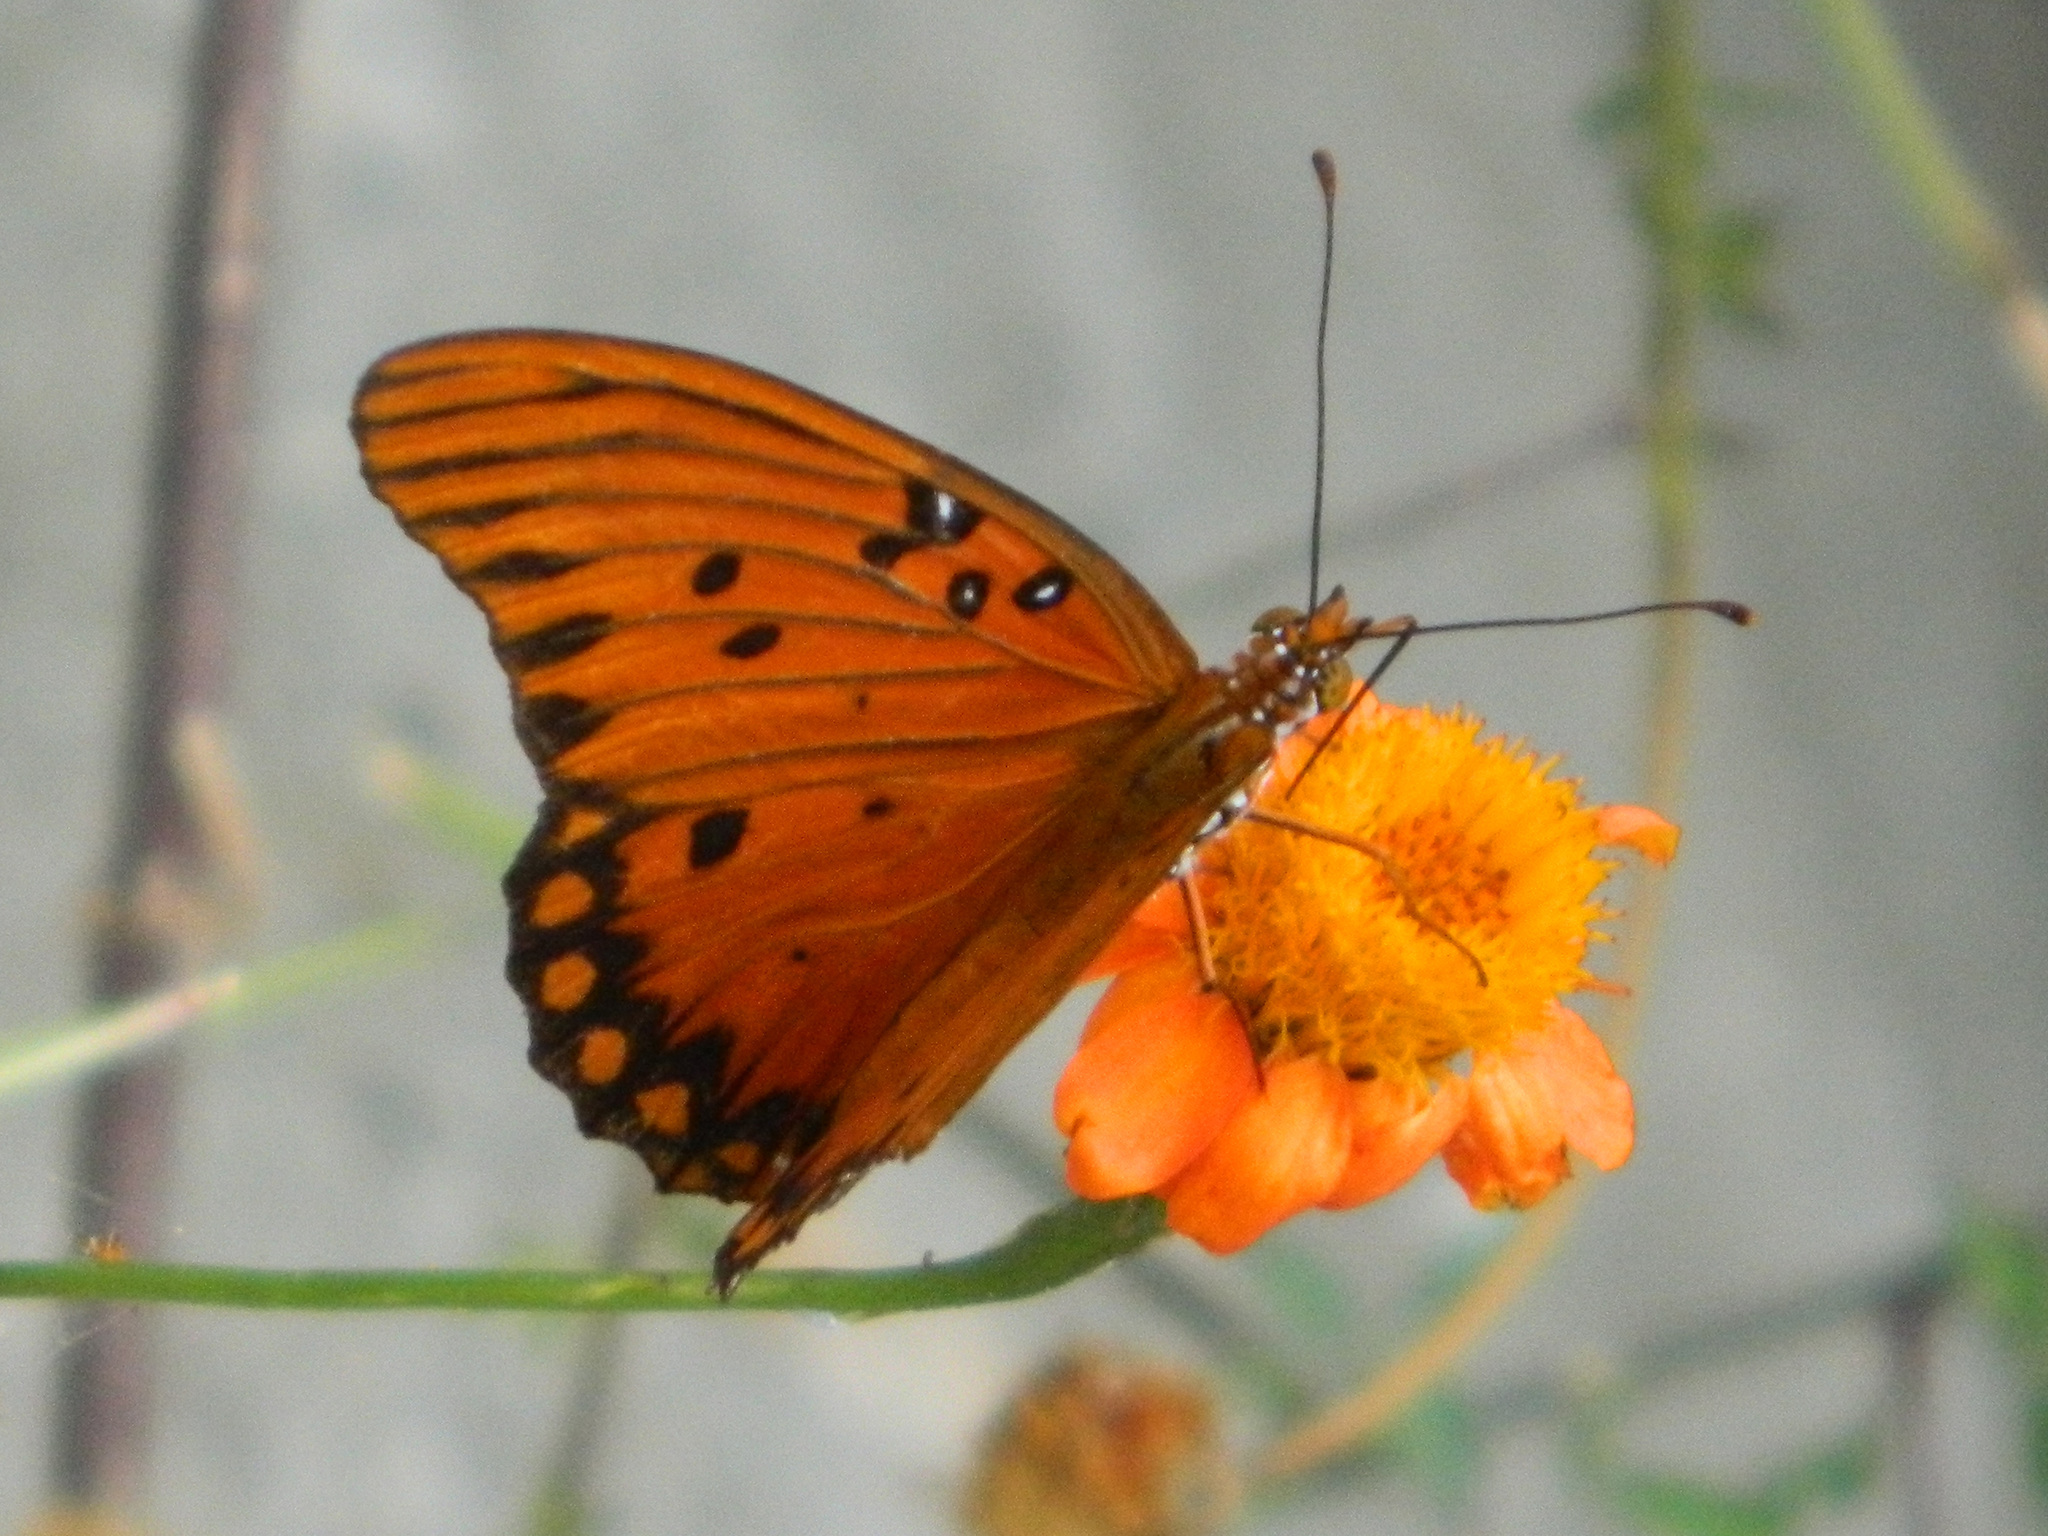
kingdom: Animalia
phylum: Arthropoda
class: Insecta
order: Lepidoptera
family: Nymphalidae
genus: Dione
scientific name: Dione vanillae
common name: Gulf fritillary
